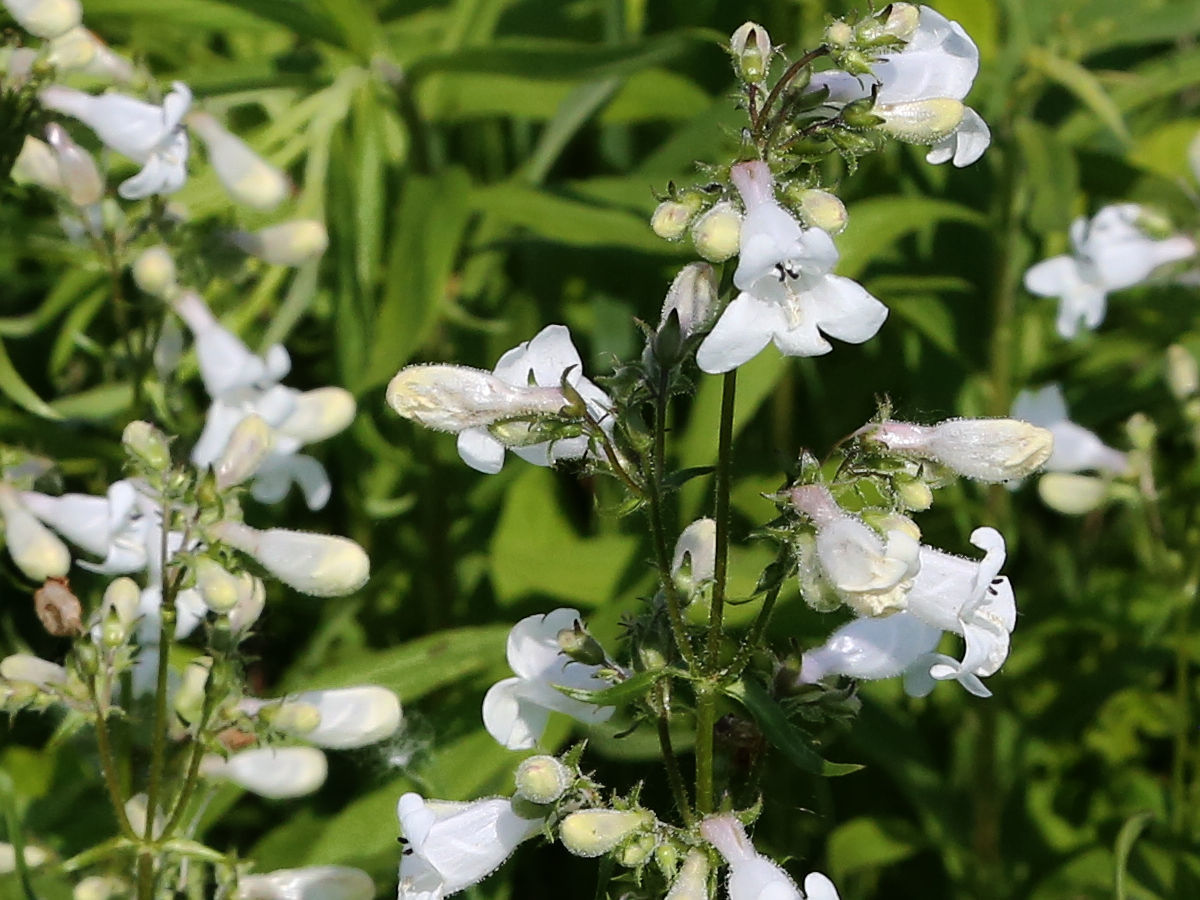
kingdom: Plantae
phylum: Tracheophyta
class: Magnoliopsida
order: Lamiales
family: Plantaginaceae
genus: Penstemon
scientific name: Penstemon digitalis
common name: Foxglove beardtongue
